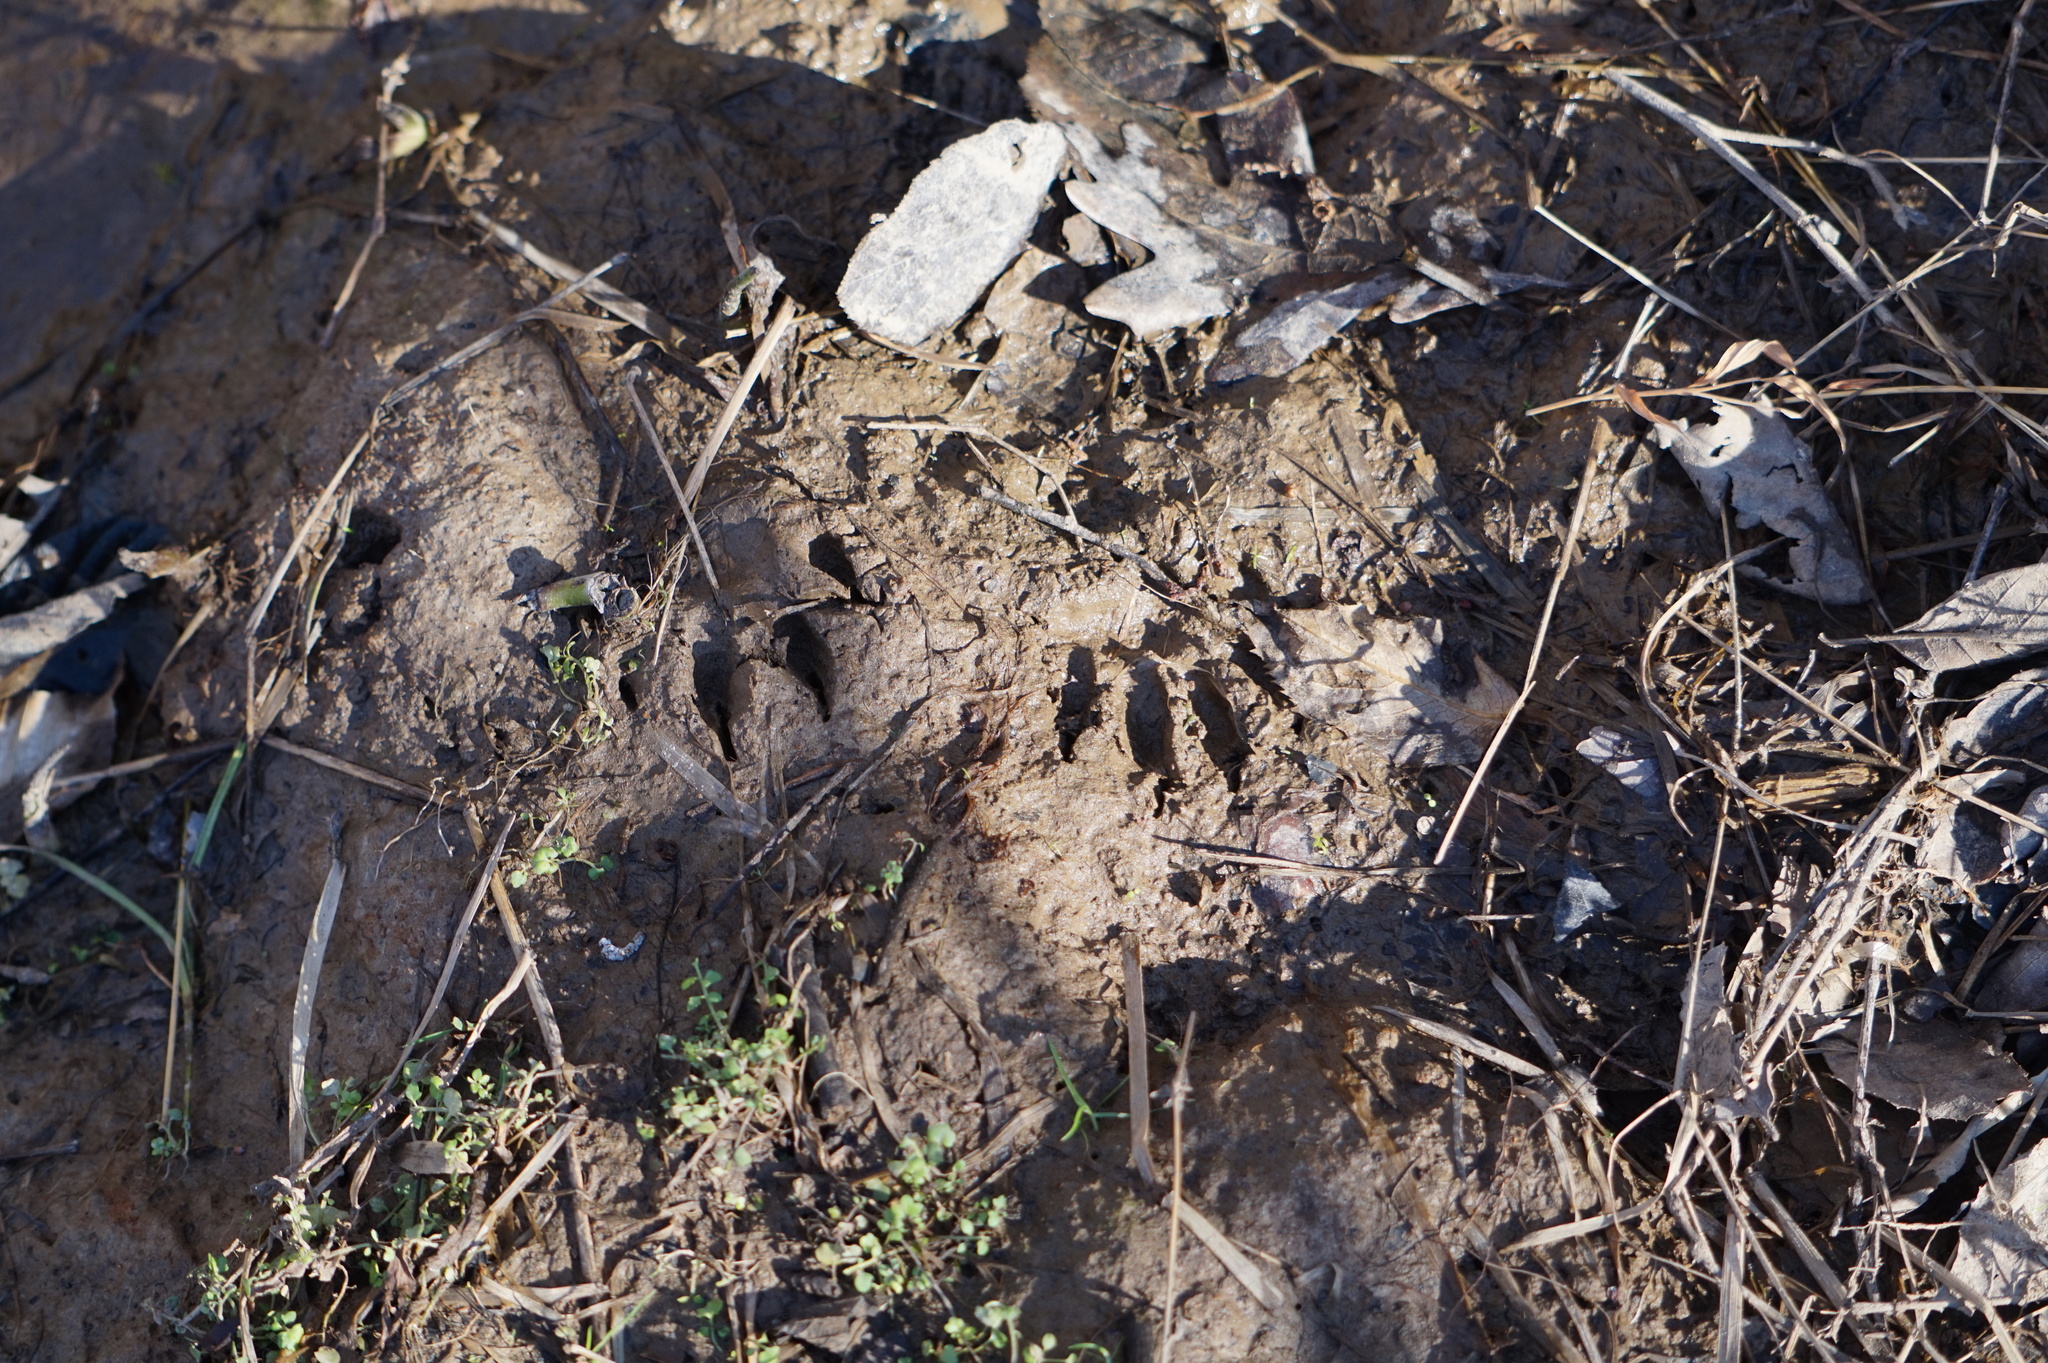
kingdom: Animalia
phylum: Chordata
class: Mammalia
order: Carnivora
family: Procyonidae
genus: Procyon
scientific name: Procyon lotor
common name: Raccoon
